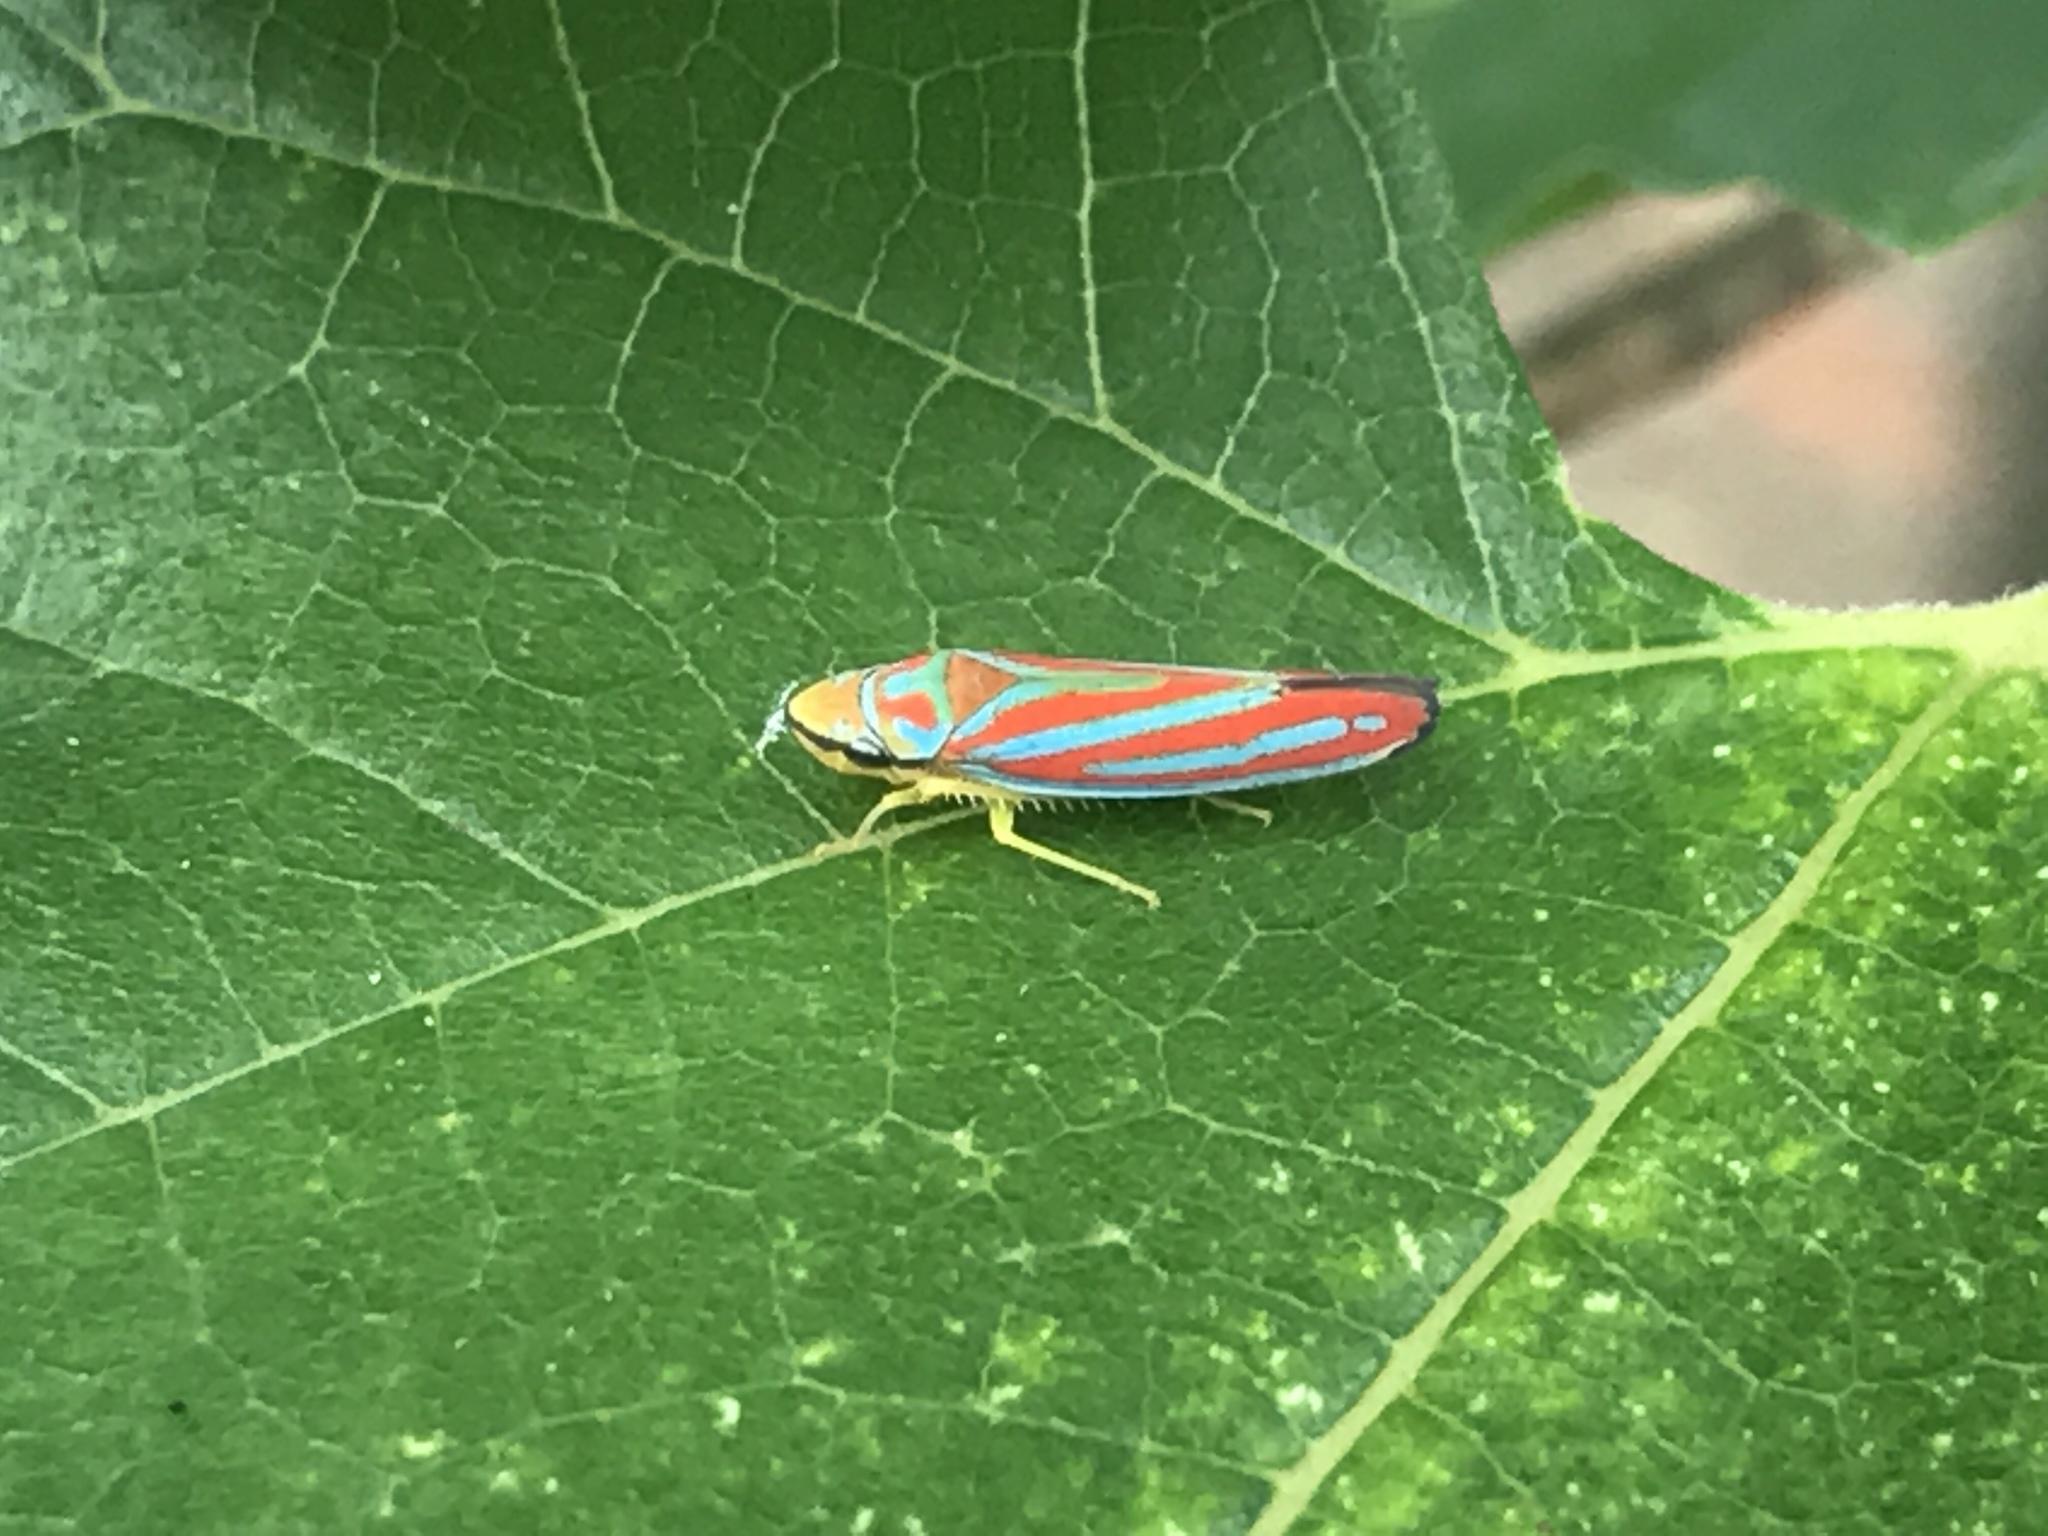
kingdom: Animalia
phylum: Arthropoda
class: Insecta
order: Hemiptera
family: Cicadellidae
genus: Graphocephala
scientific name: Graphocephala coccinea
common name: Candy-striped leafhopper
